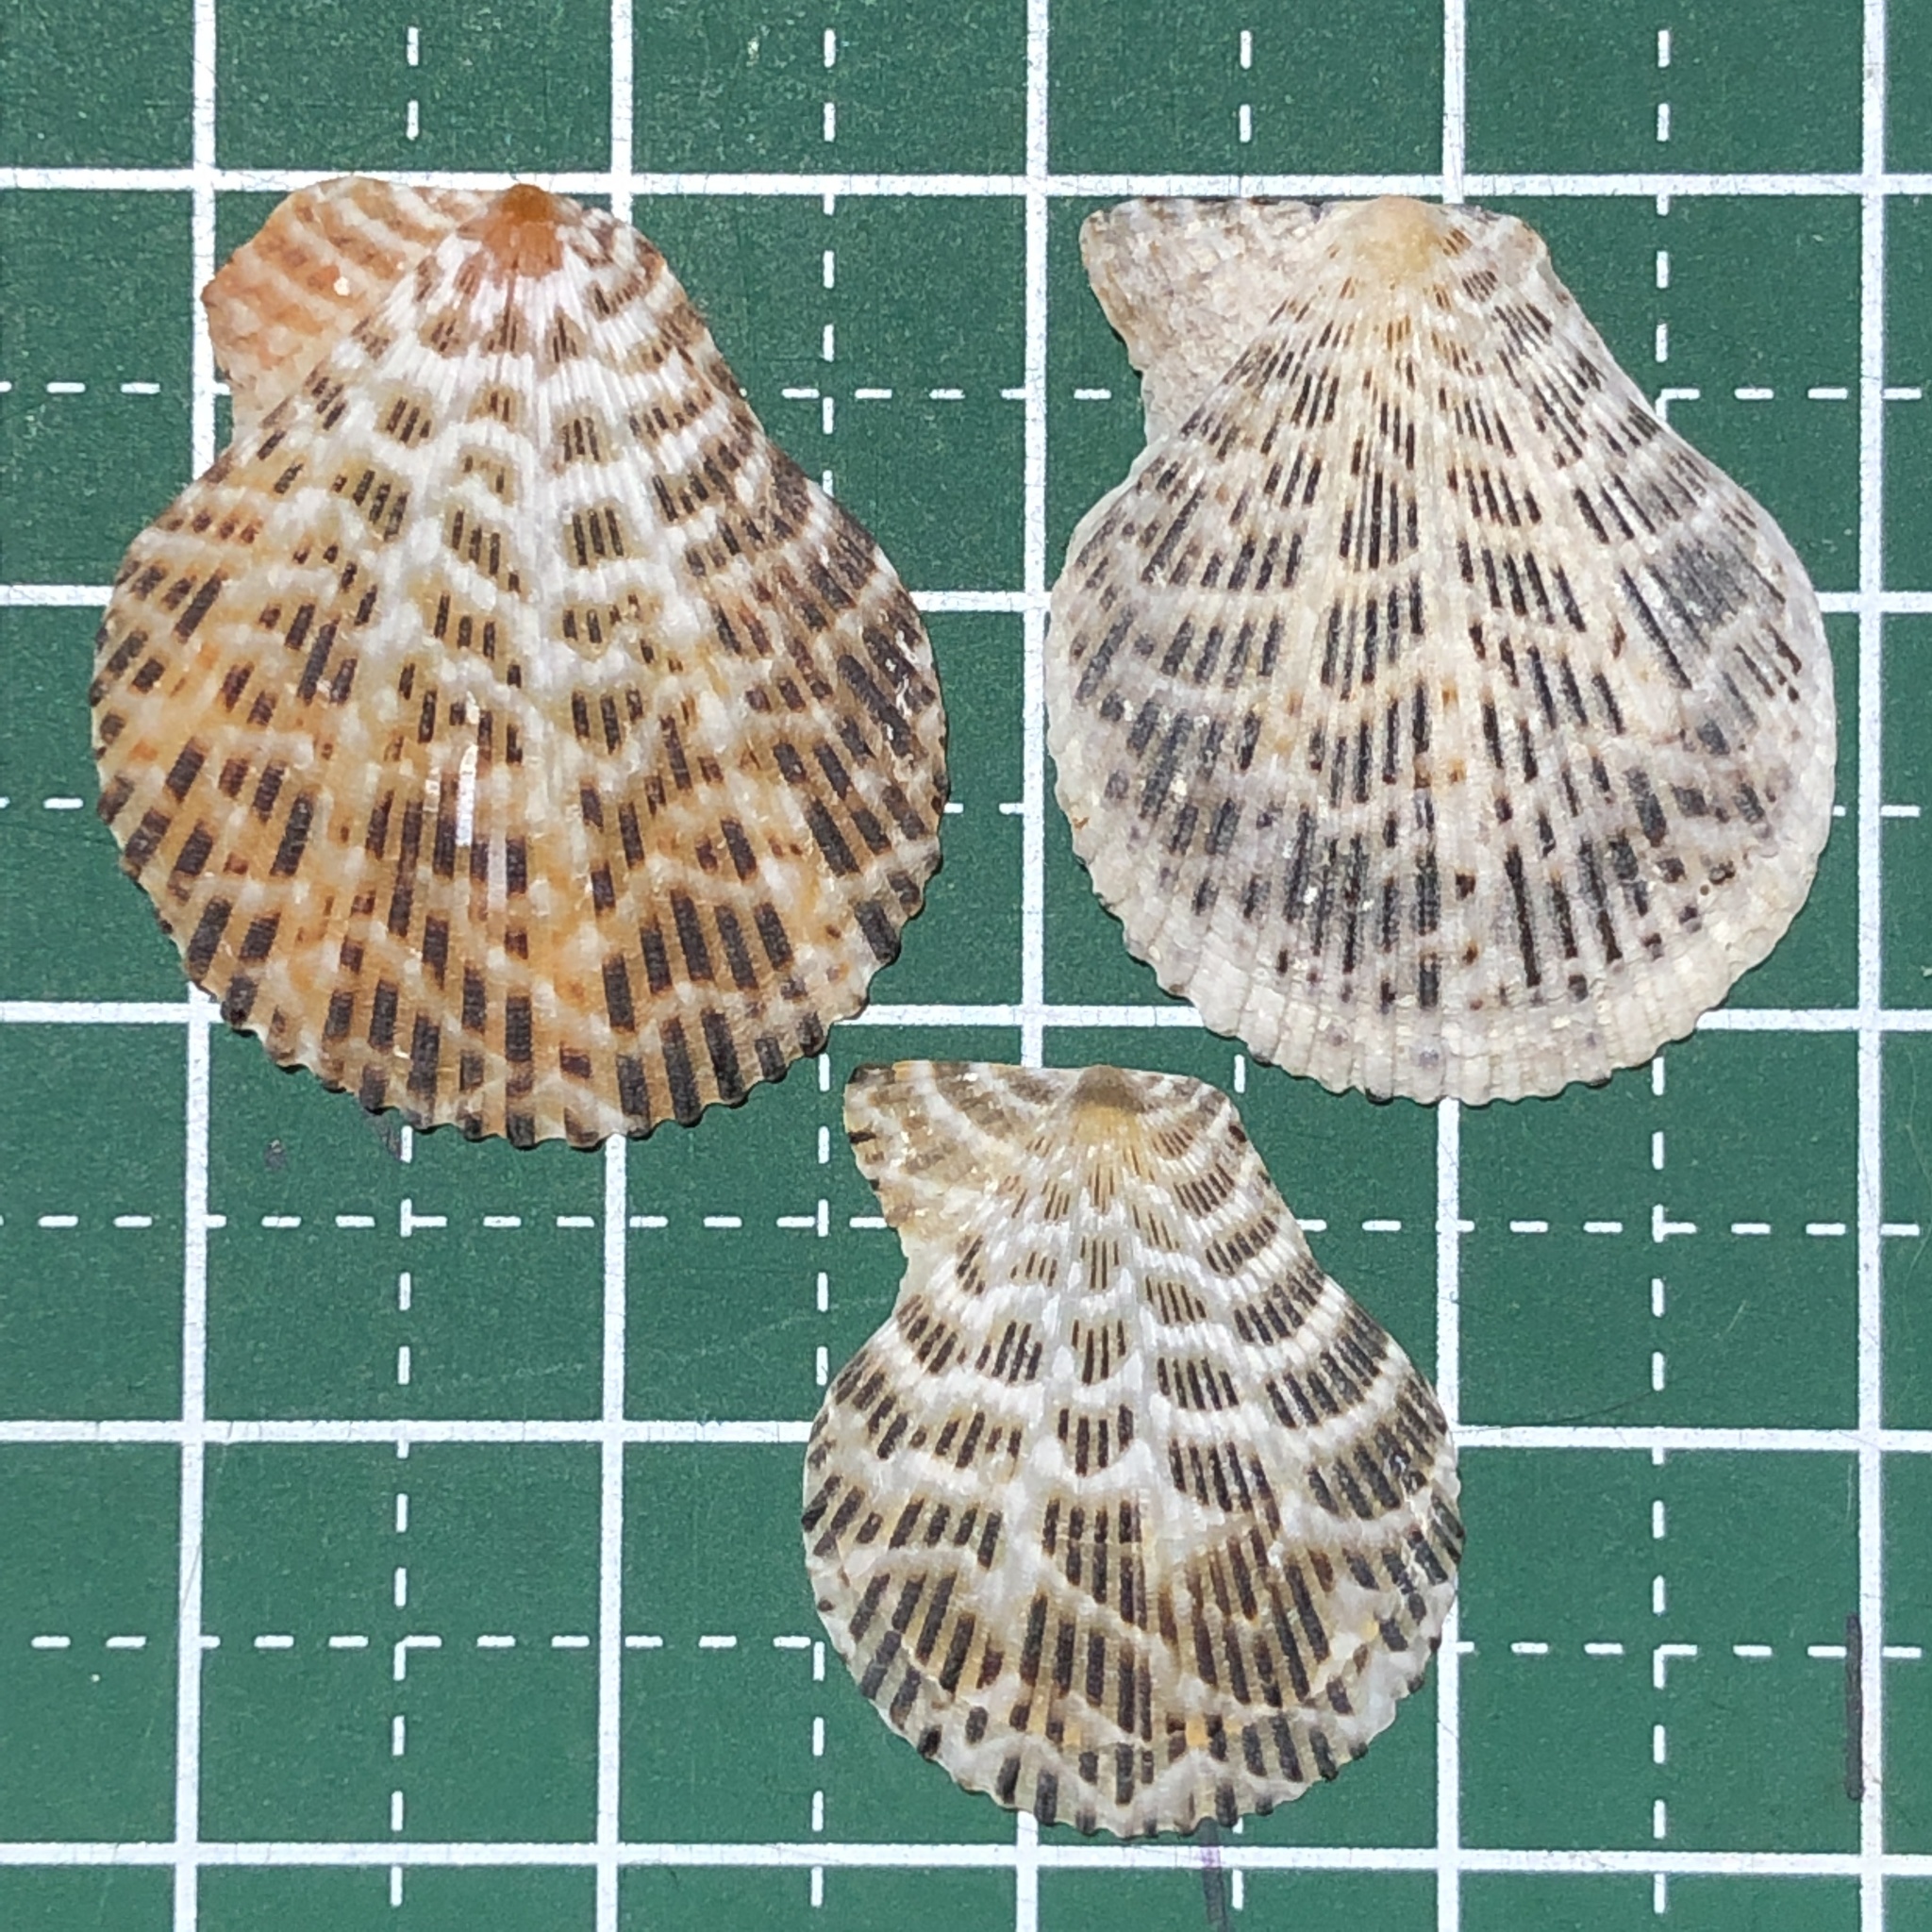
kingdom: Animalia
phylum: Mollusca
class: Bivalvia
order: Pectinida
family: Pectinidae
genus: Mimachlamys
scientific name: Mimachlamys albolineata
